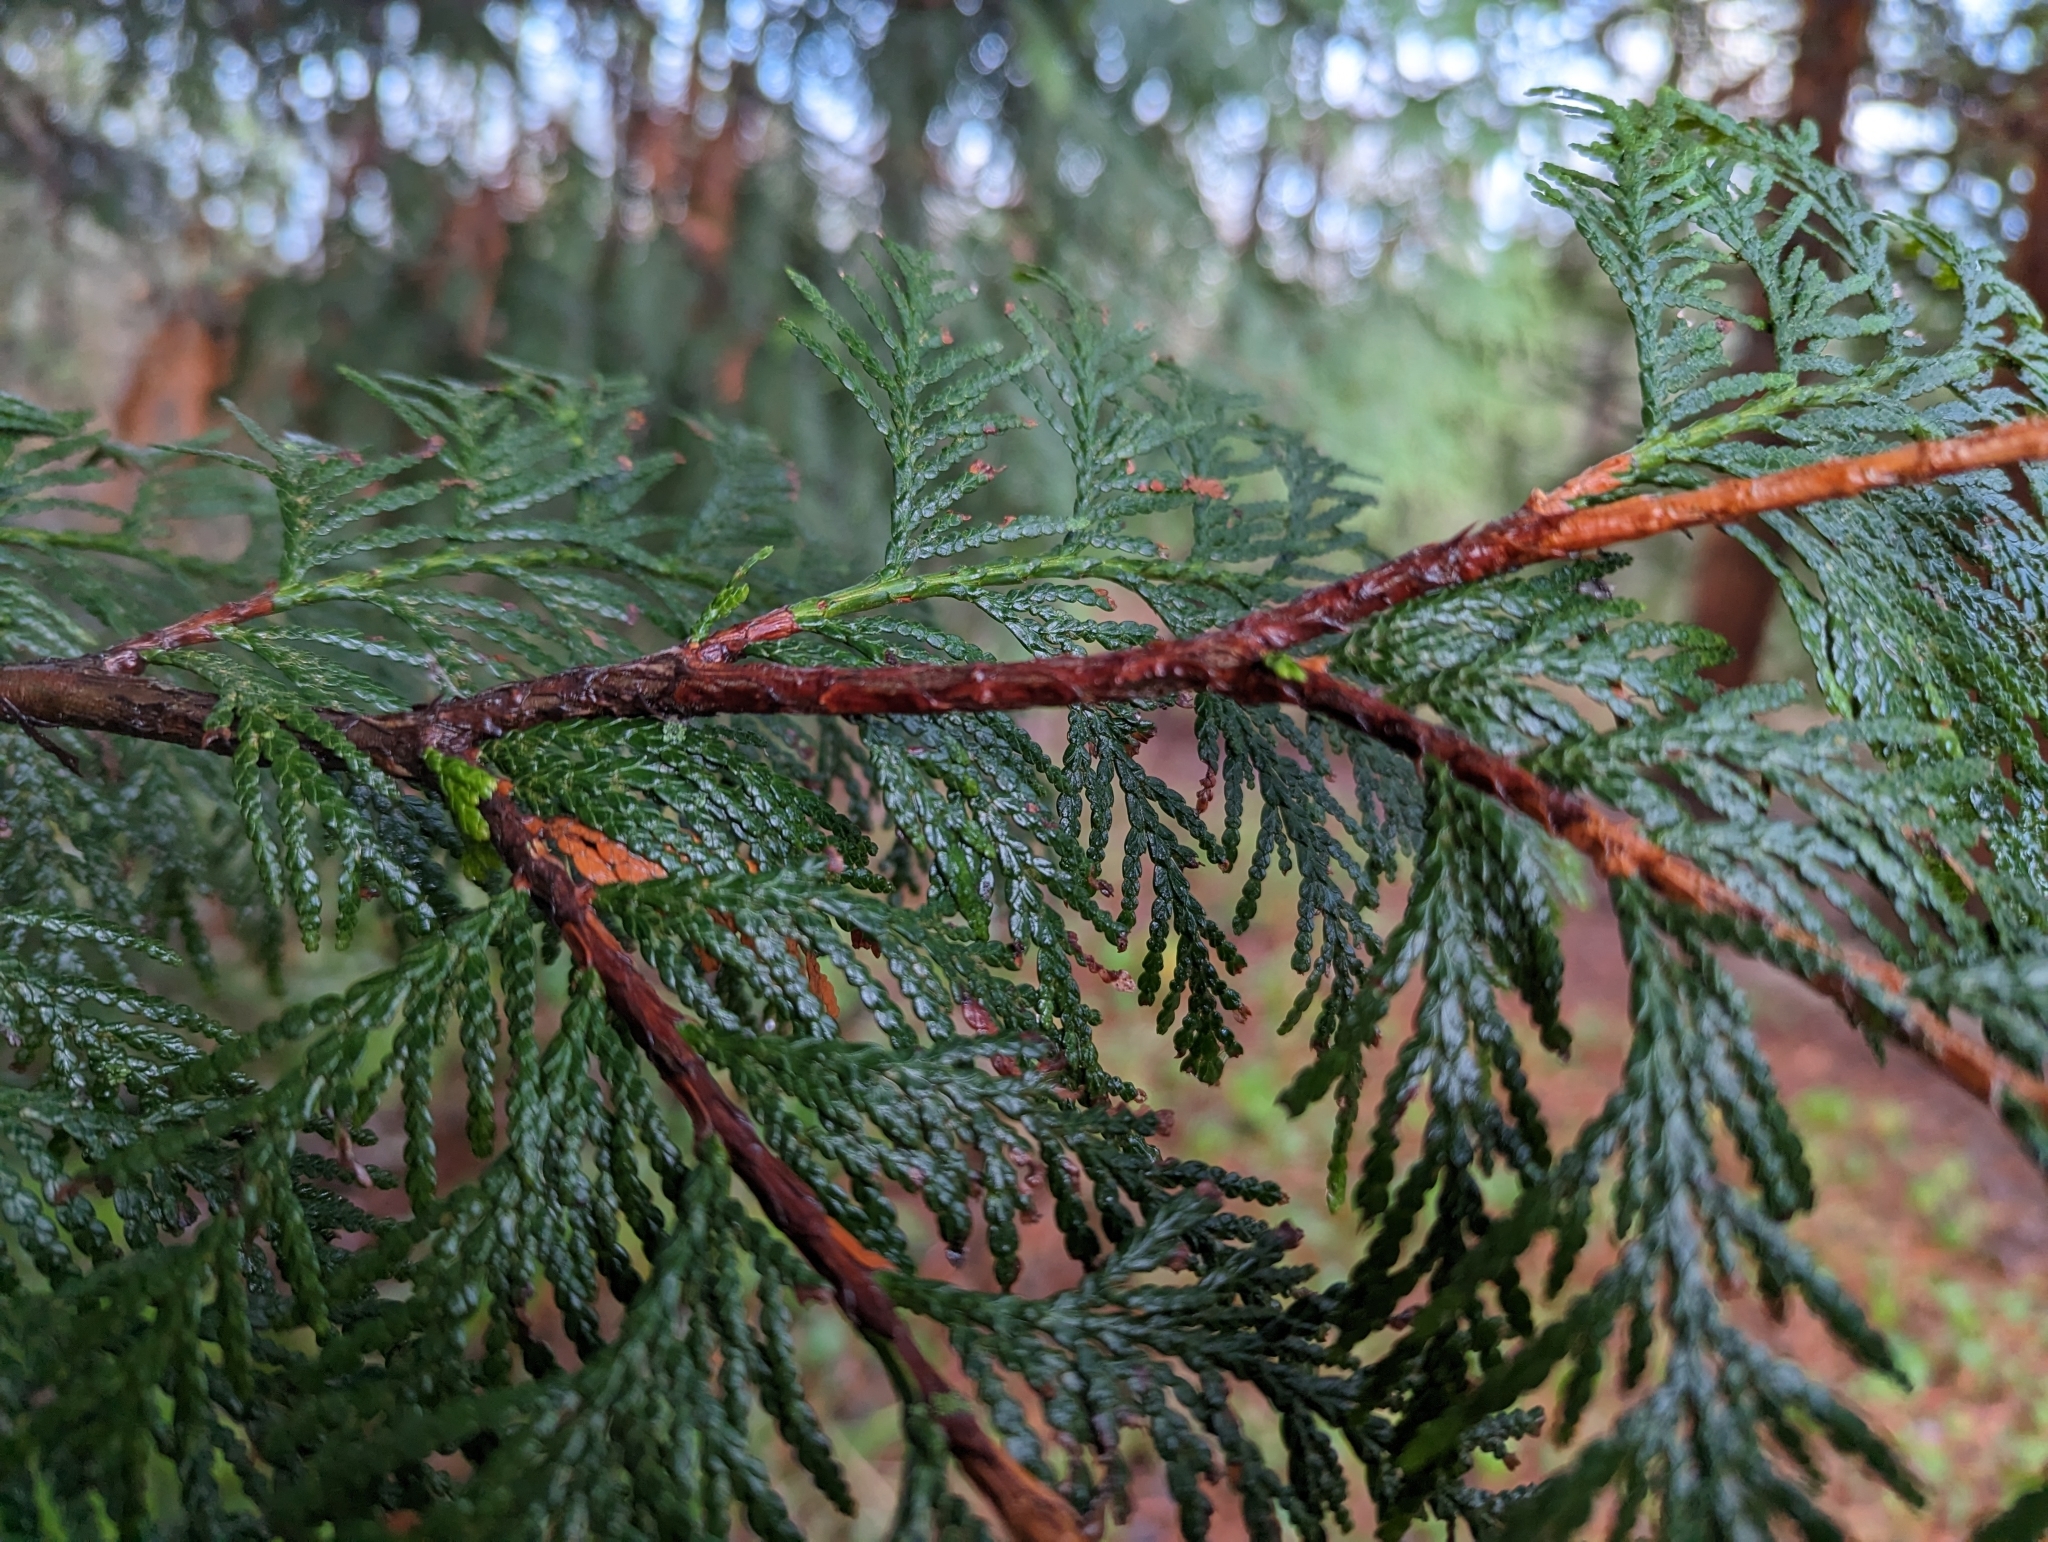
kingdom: Plantae
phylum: Tracheophyta
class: Pinopsida
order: Pinales
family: Cupressaceae
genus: Thuja
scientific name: Thuja plicata
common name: Western red-cedar
